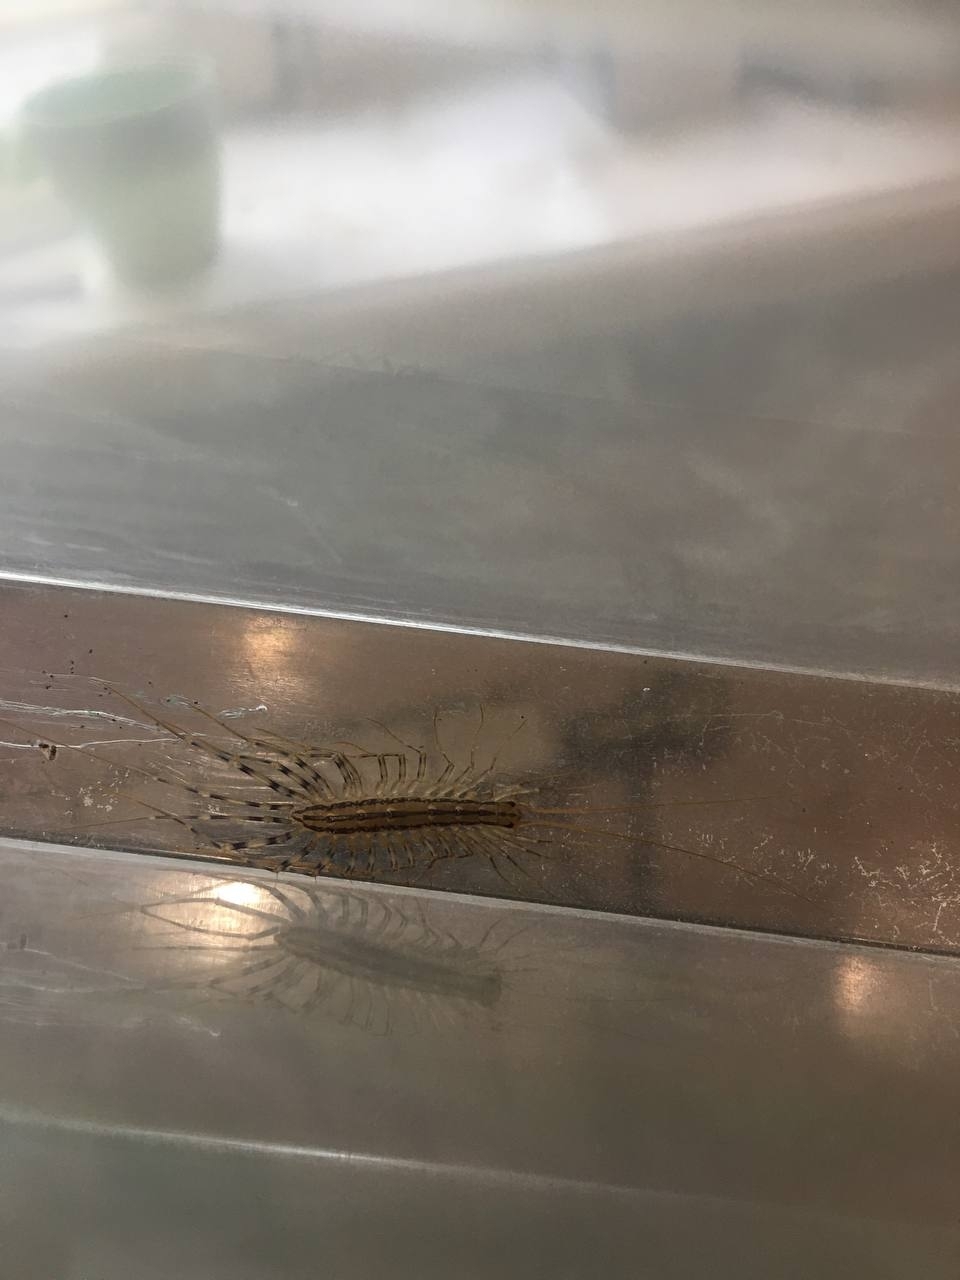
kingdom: Animalia
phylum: Arthropoda
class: Chilopoda
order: Scutigeromorpha
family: Scutigeridae
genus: Scutigera
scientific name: Scutigera coleoptrata
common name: House centipede
